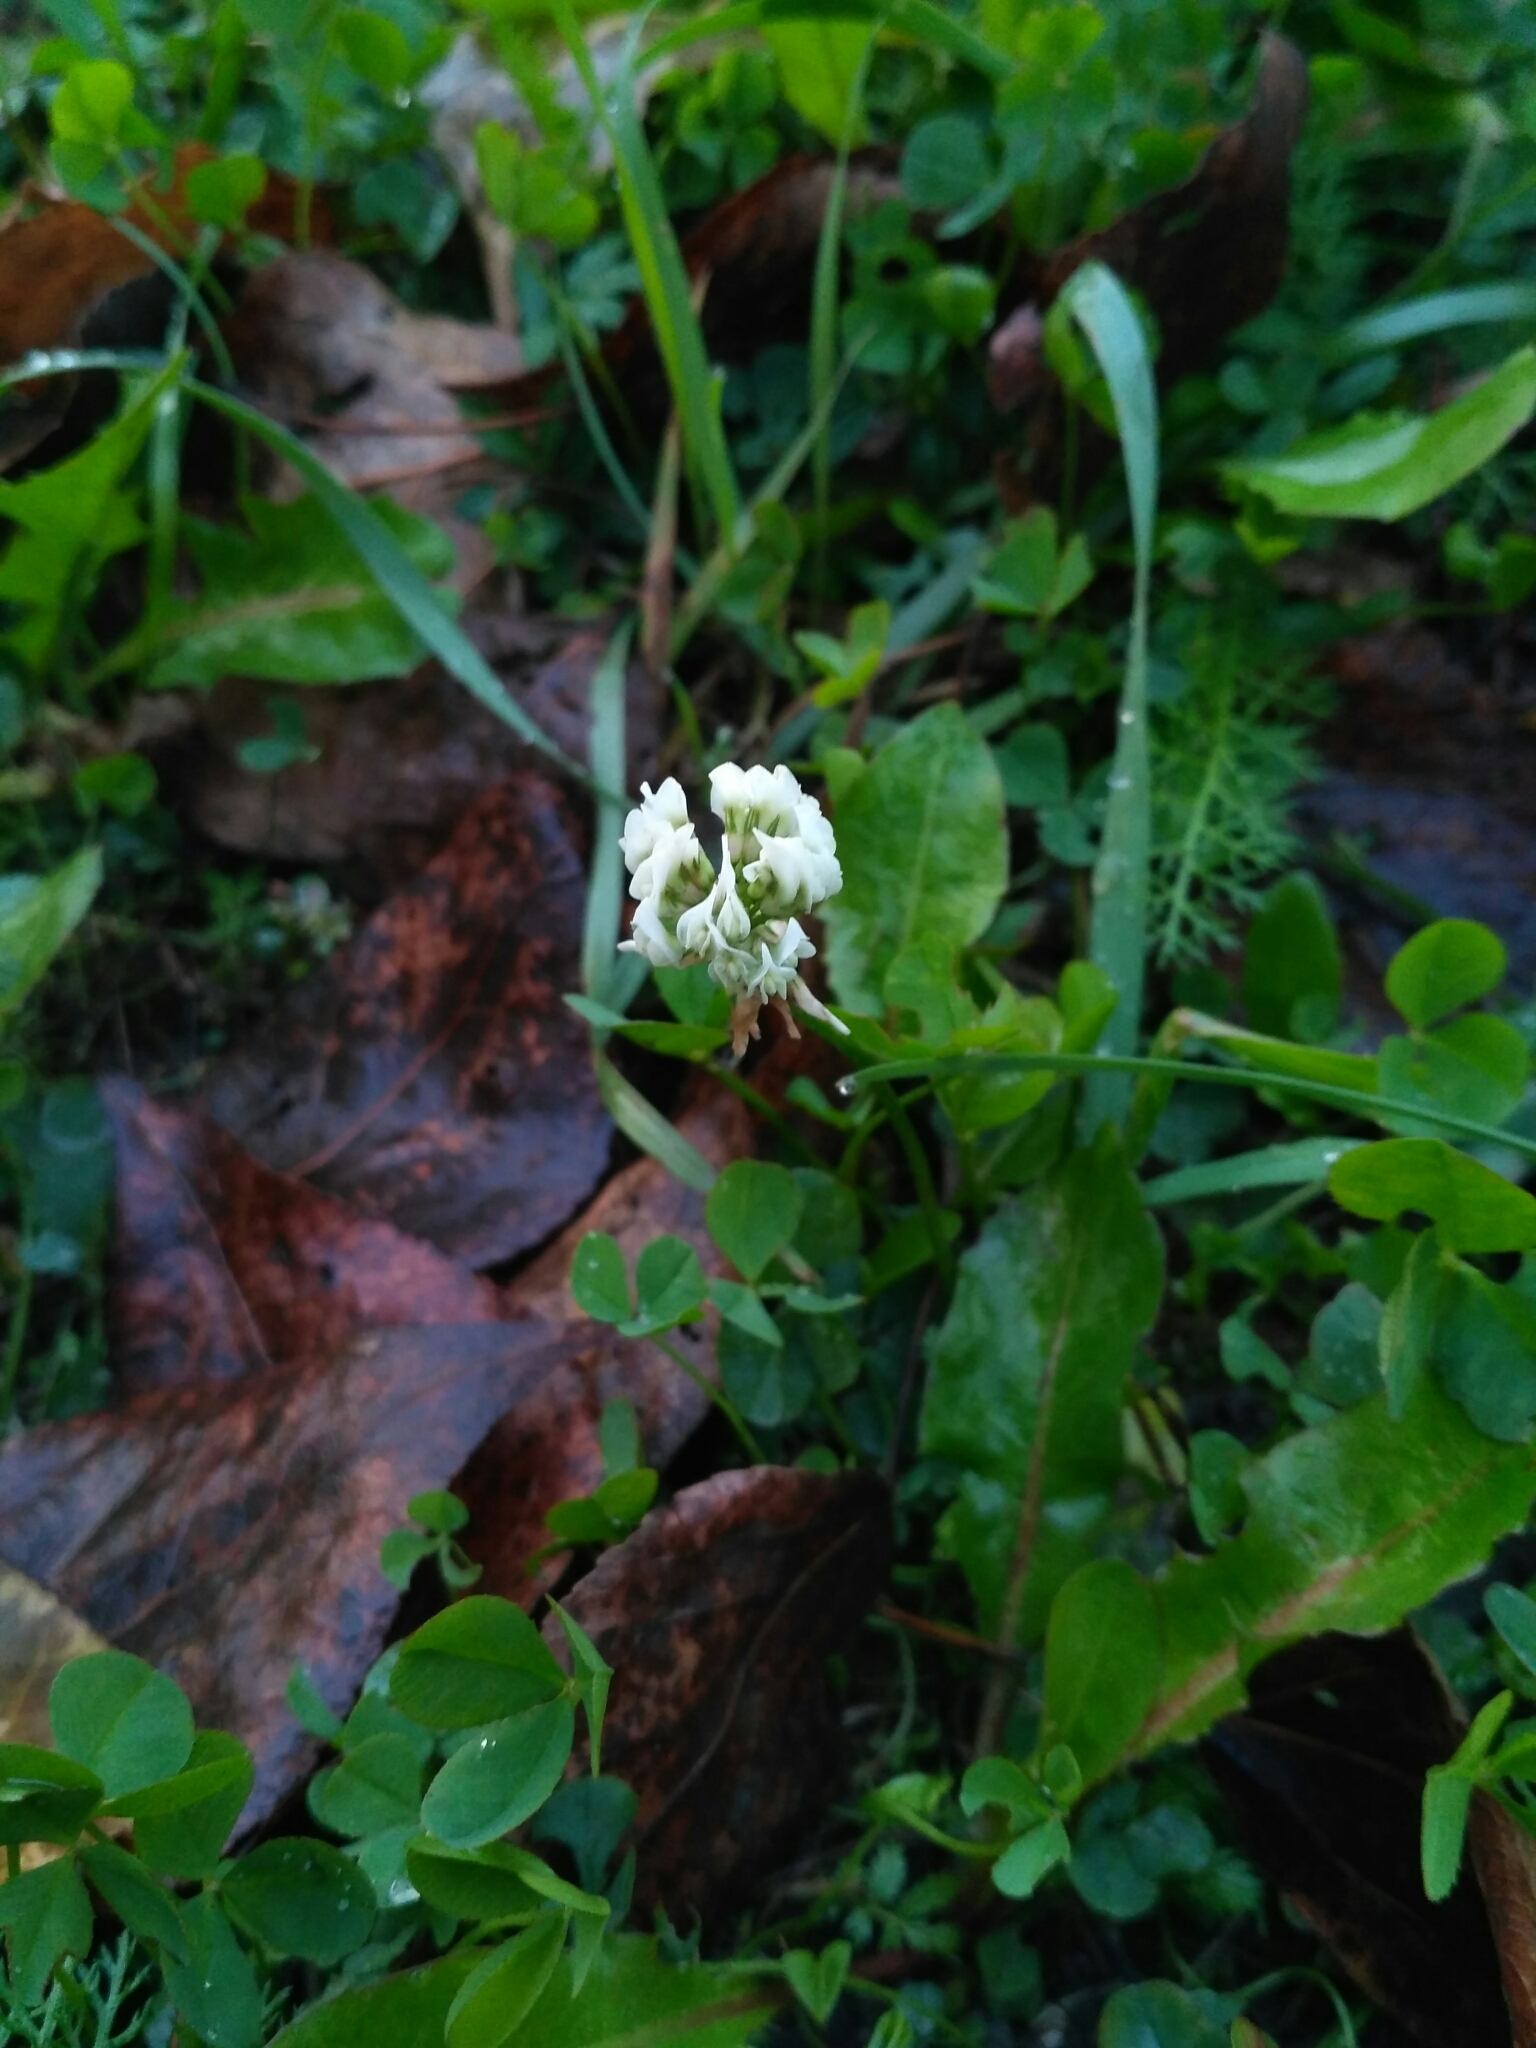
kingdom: Plantae
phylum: Tracheophyta
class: Magnoliopsida
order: Fabales
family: Fabaceae
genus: Trifolium
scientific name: Trifolium repens
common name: White clover
